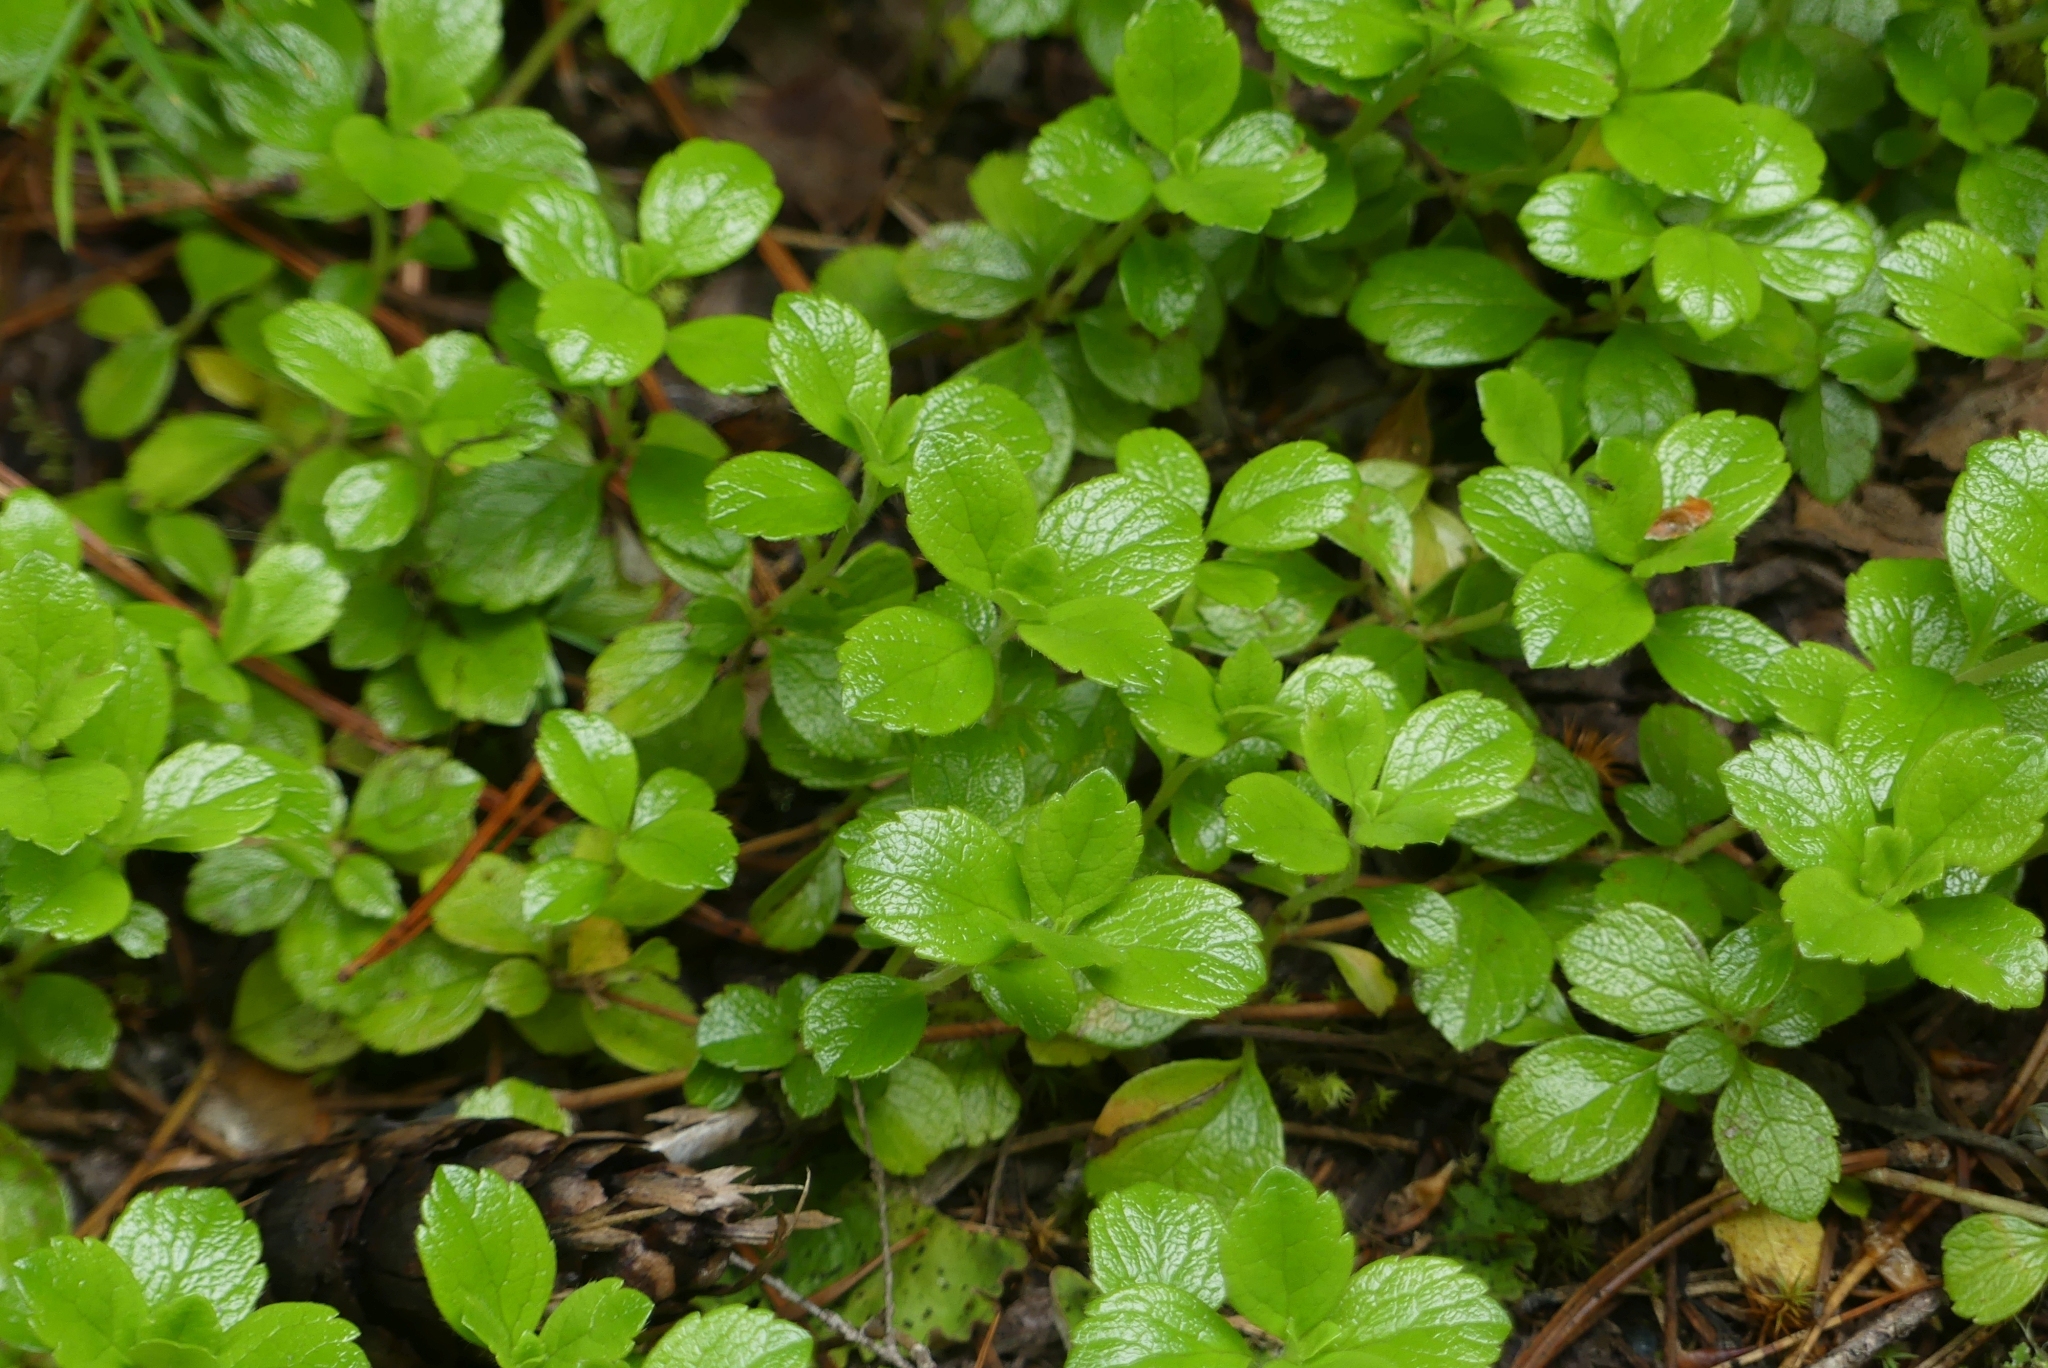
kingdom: Plantae
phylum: Tracheophyta
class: Magnoliopsida
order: Dipsacales
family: Caprifoliaceae
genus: Linnaea
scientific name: Linnaea borealis
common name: Twinflower
